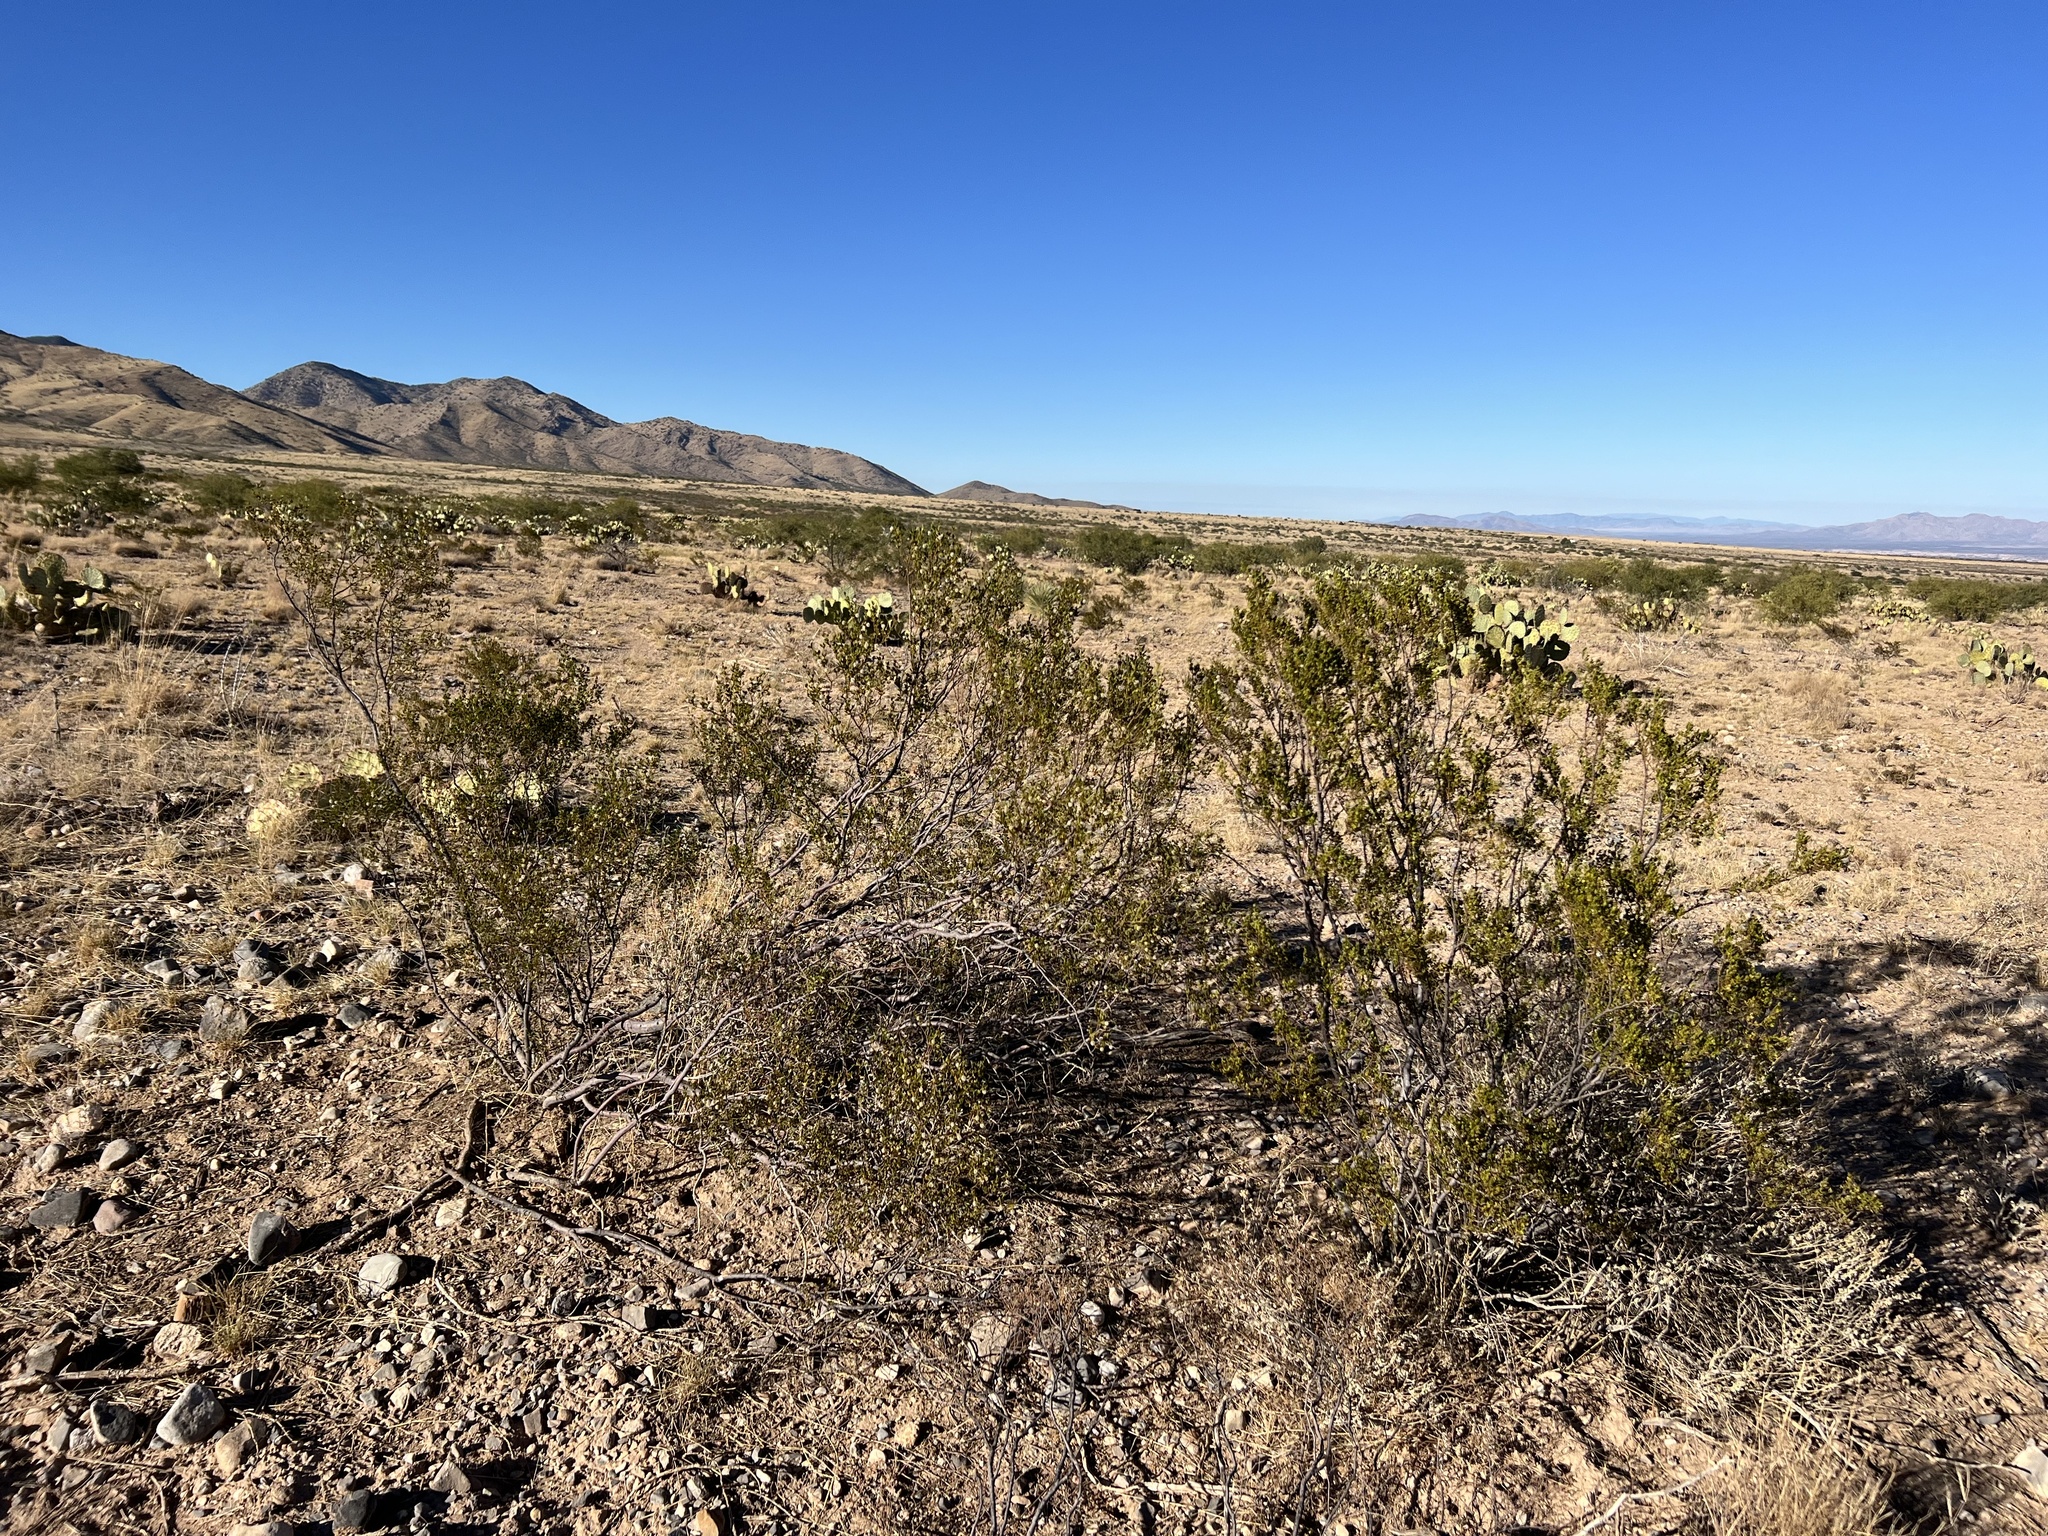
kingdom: Plantae
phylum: Tracheophyta
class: Magnoliopsida
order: Zygophyllales
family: Zygophyllaceae
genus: Larrea
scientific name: Larrea tridentata
